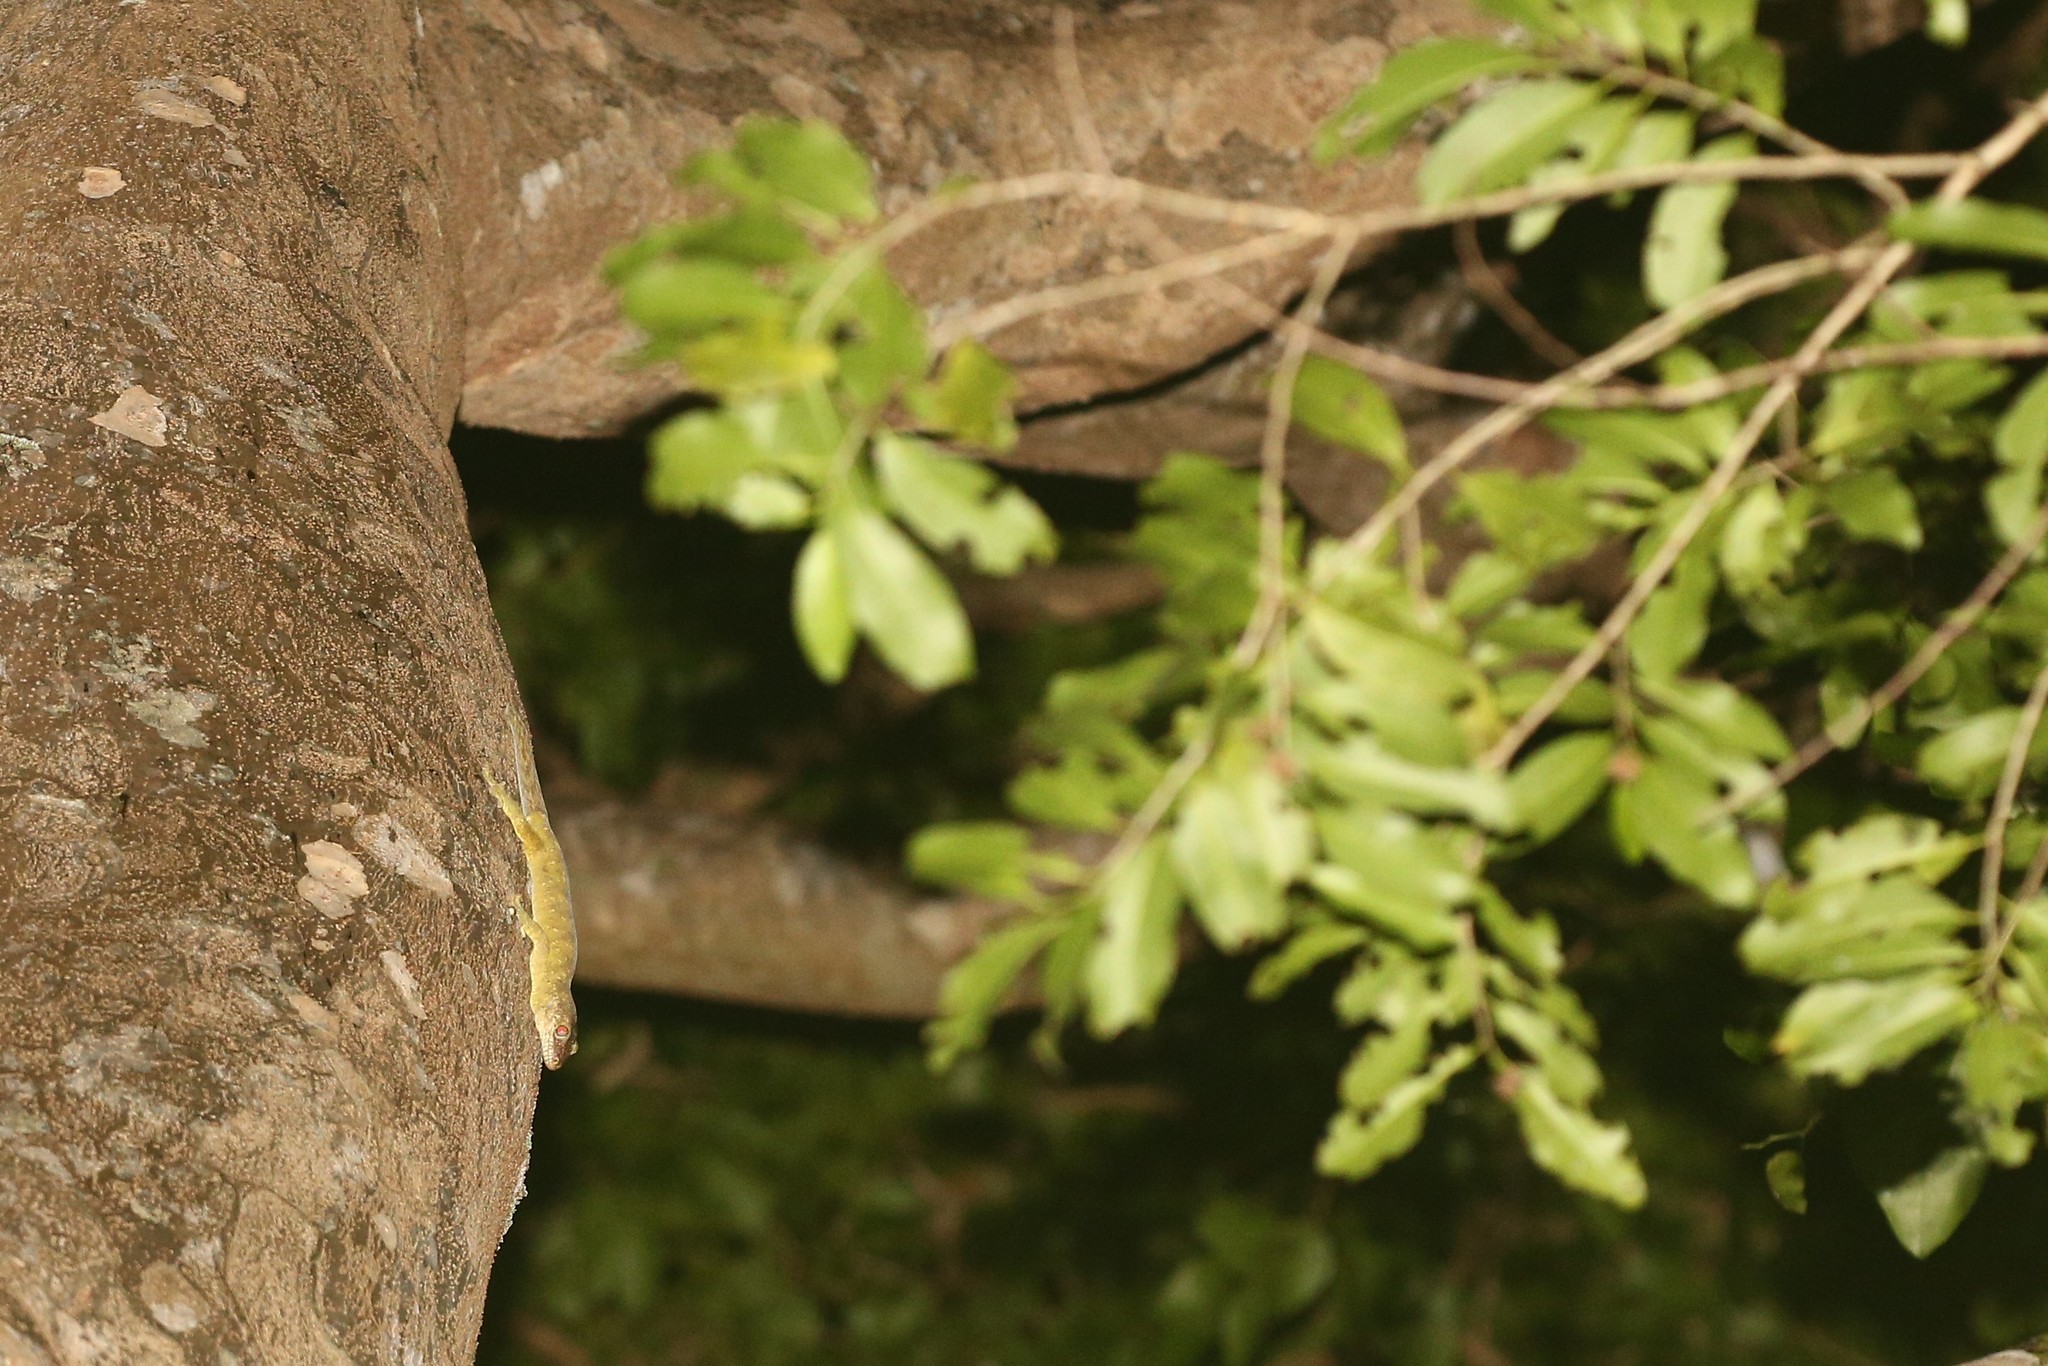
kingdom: Animalia
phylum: Chordata
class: Squamata
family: Diplodactylidae
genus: Rhacodactylus
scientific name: Rhacodactylus trachycephalus
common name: Tough-snouted giant gecko
